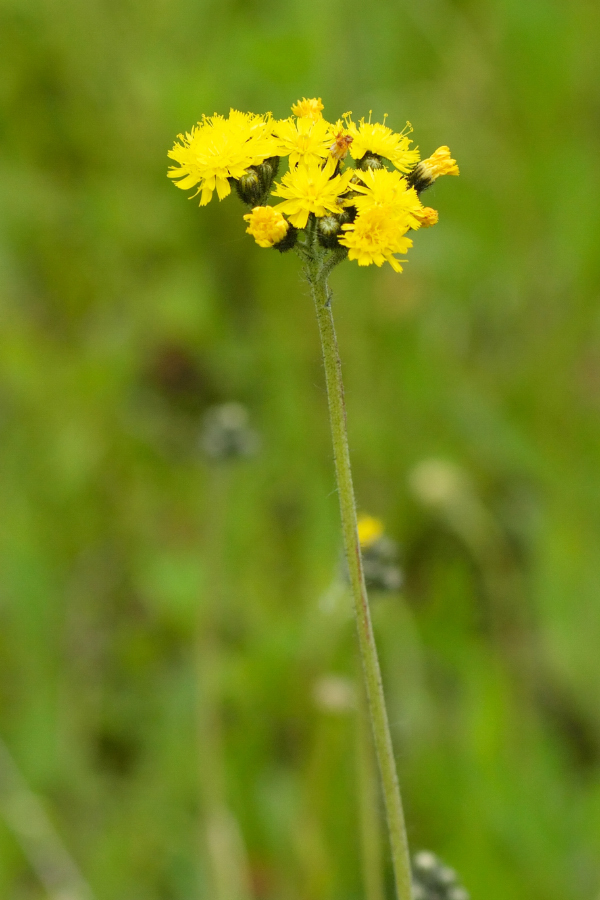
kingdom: Plantae
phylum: Tracheophyta
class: Magnoliopsida
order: Asterales
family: Asteraceae
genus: Pilosella
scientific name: Pilosella
